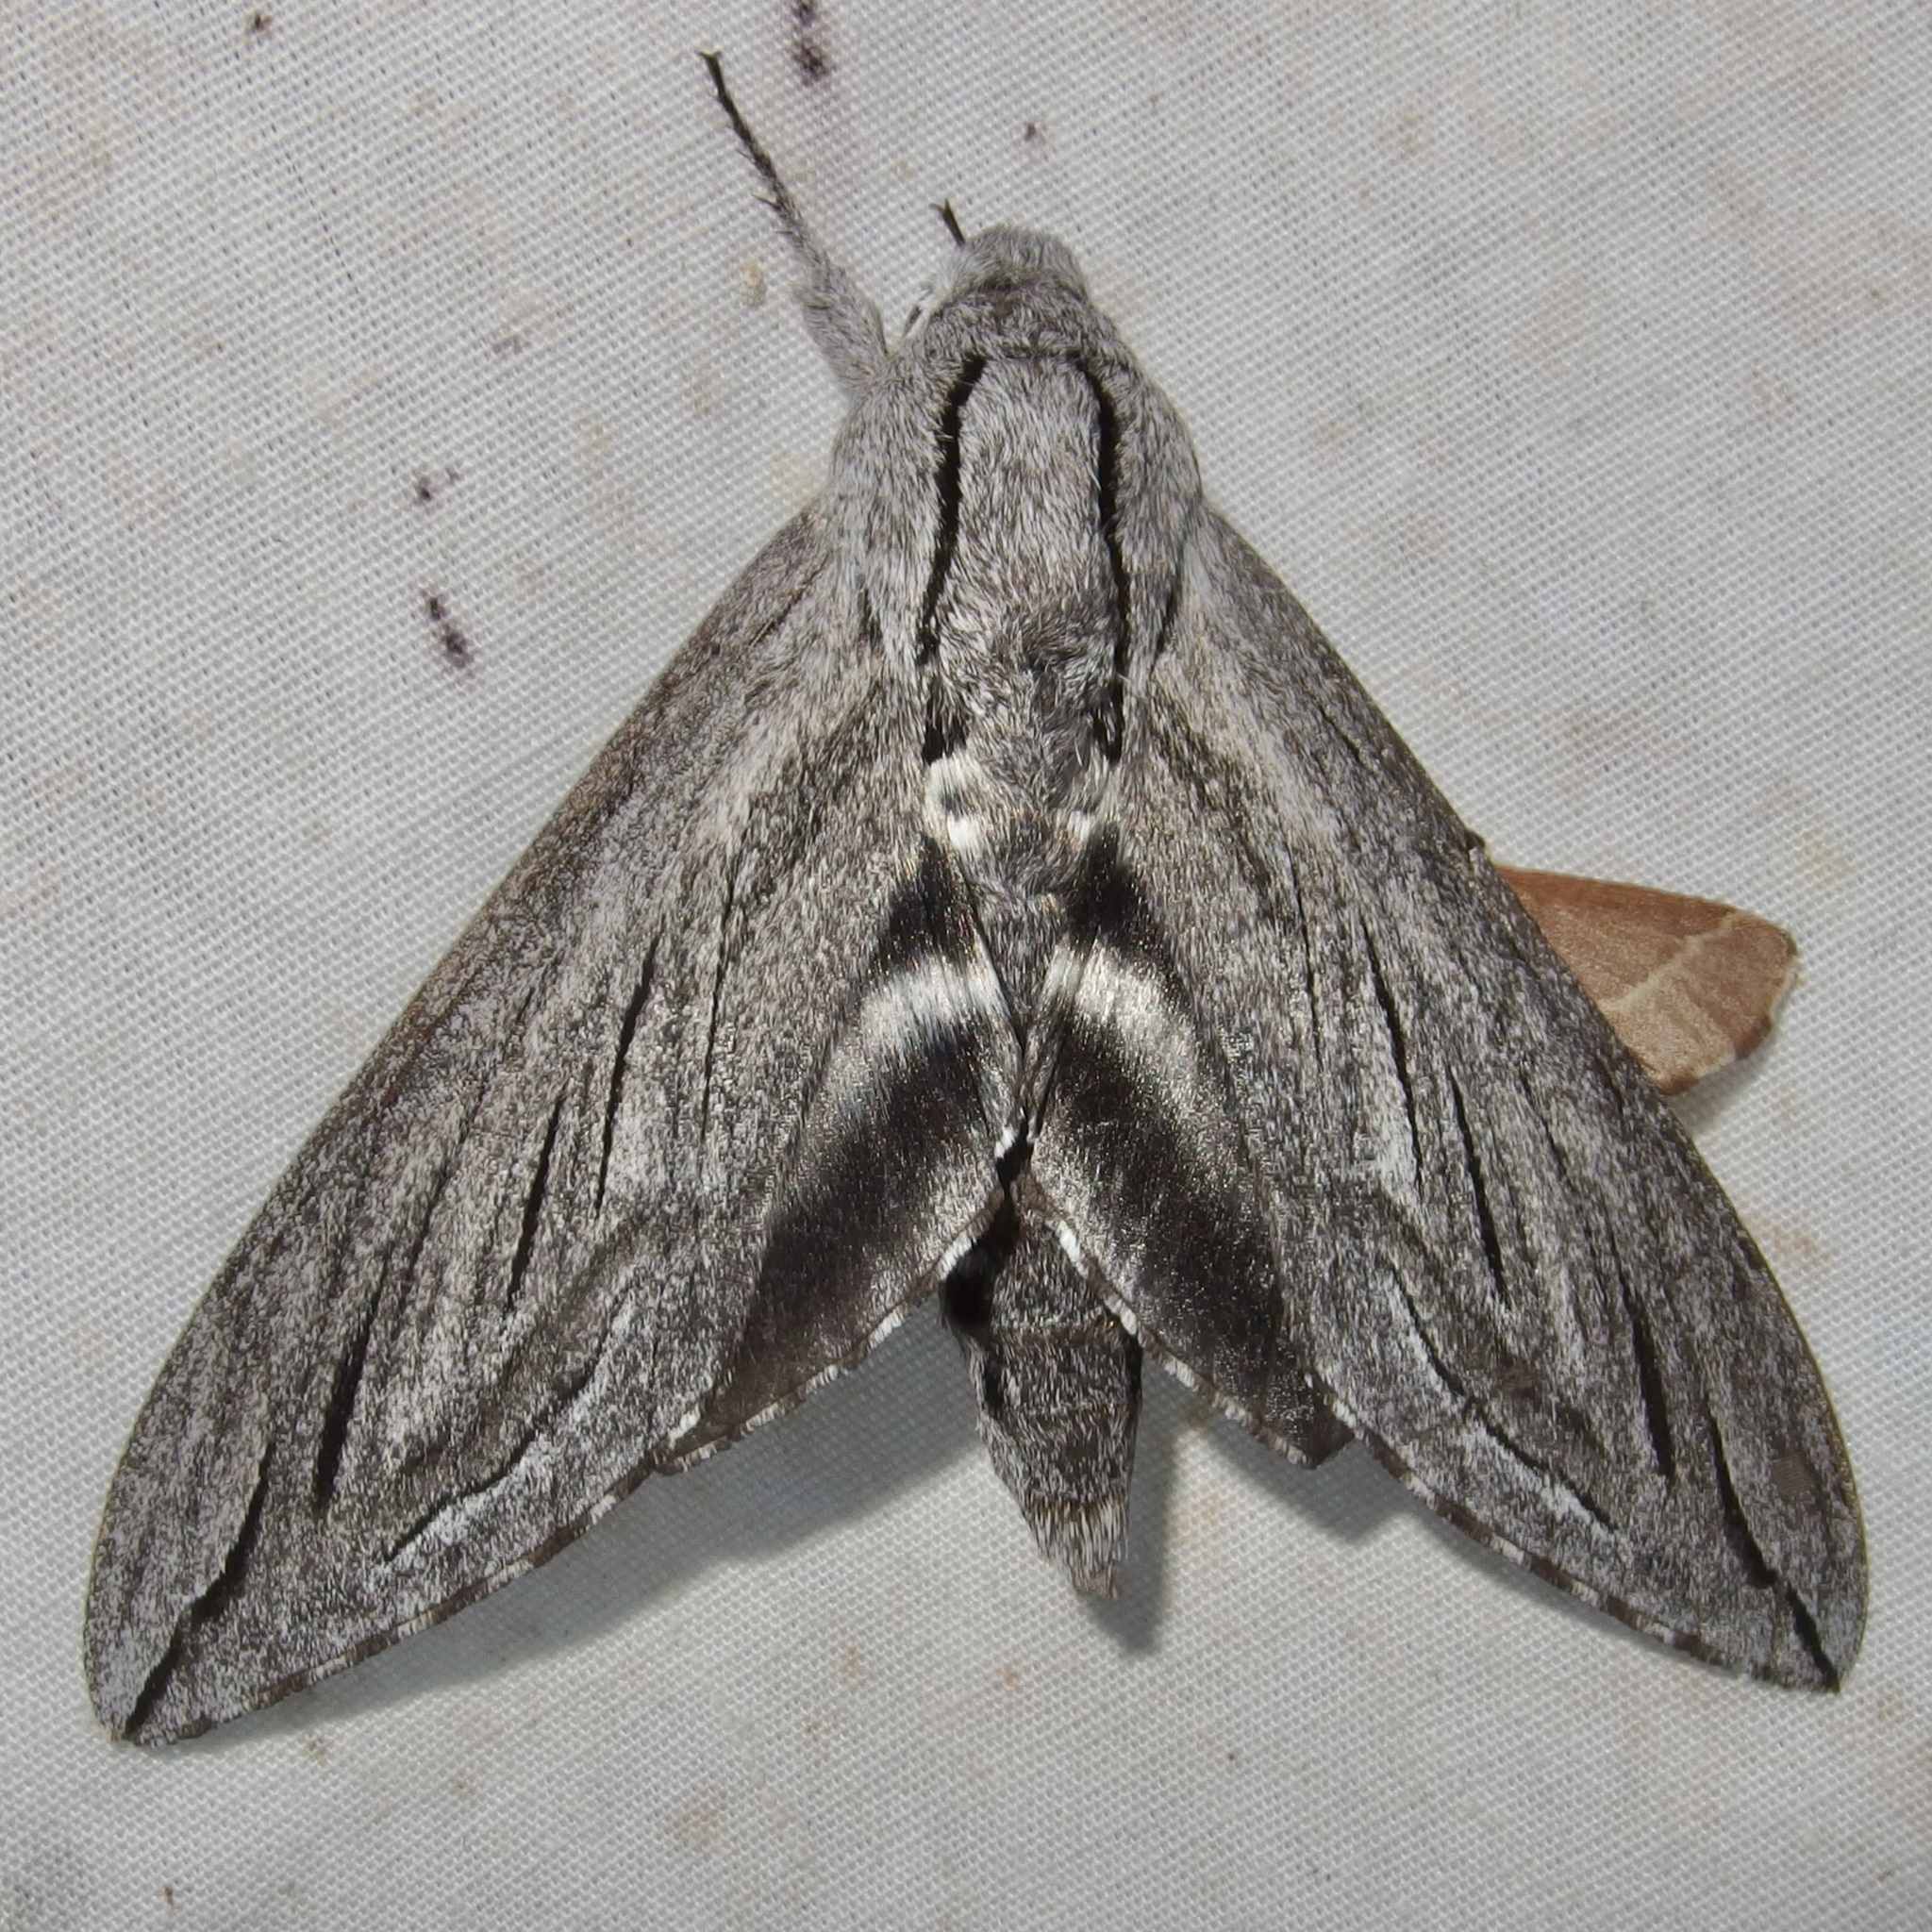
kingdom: Animalia
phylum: Arthropoda
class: Insecta
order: Lepidoptera
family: Sphingidae
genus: Sphinx
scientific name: Sphinx chersis
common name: Great ash sphinx
